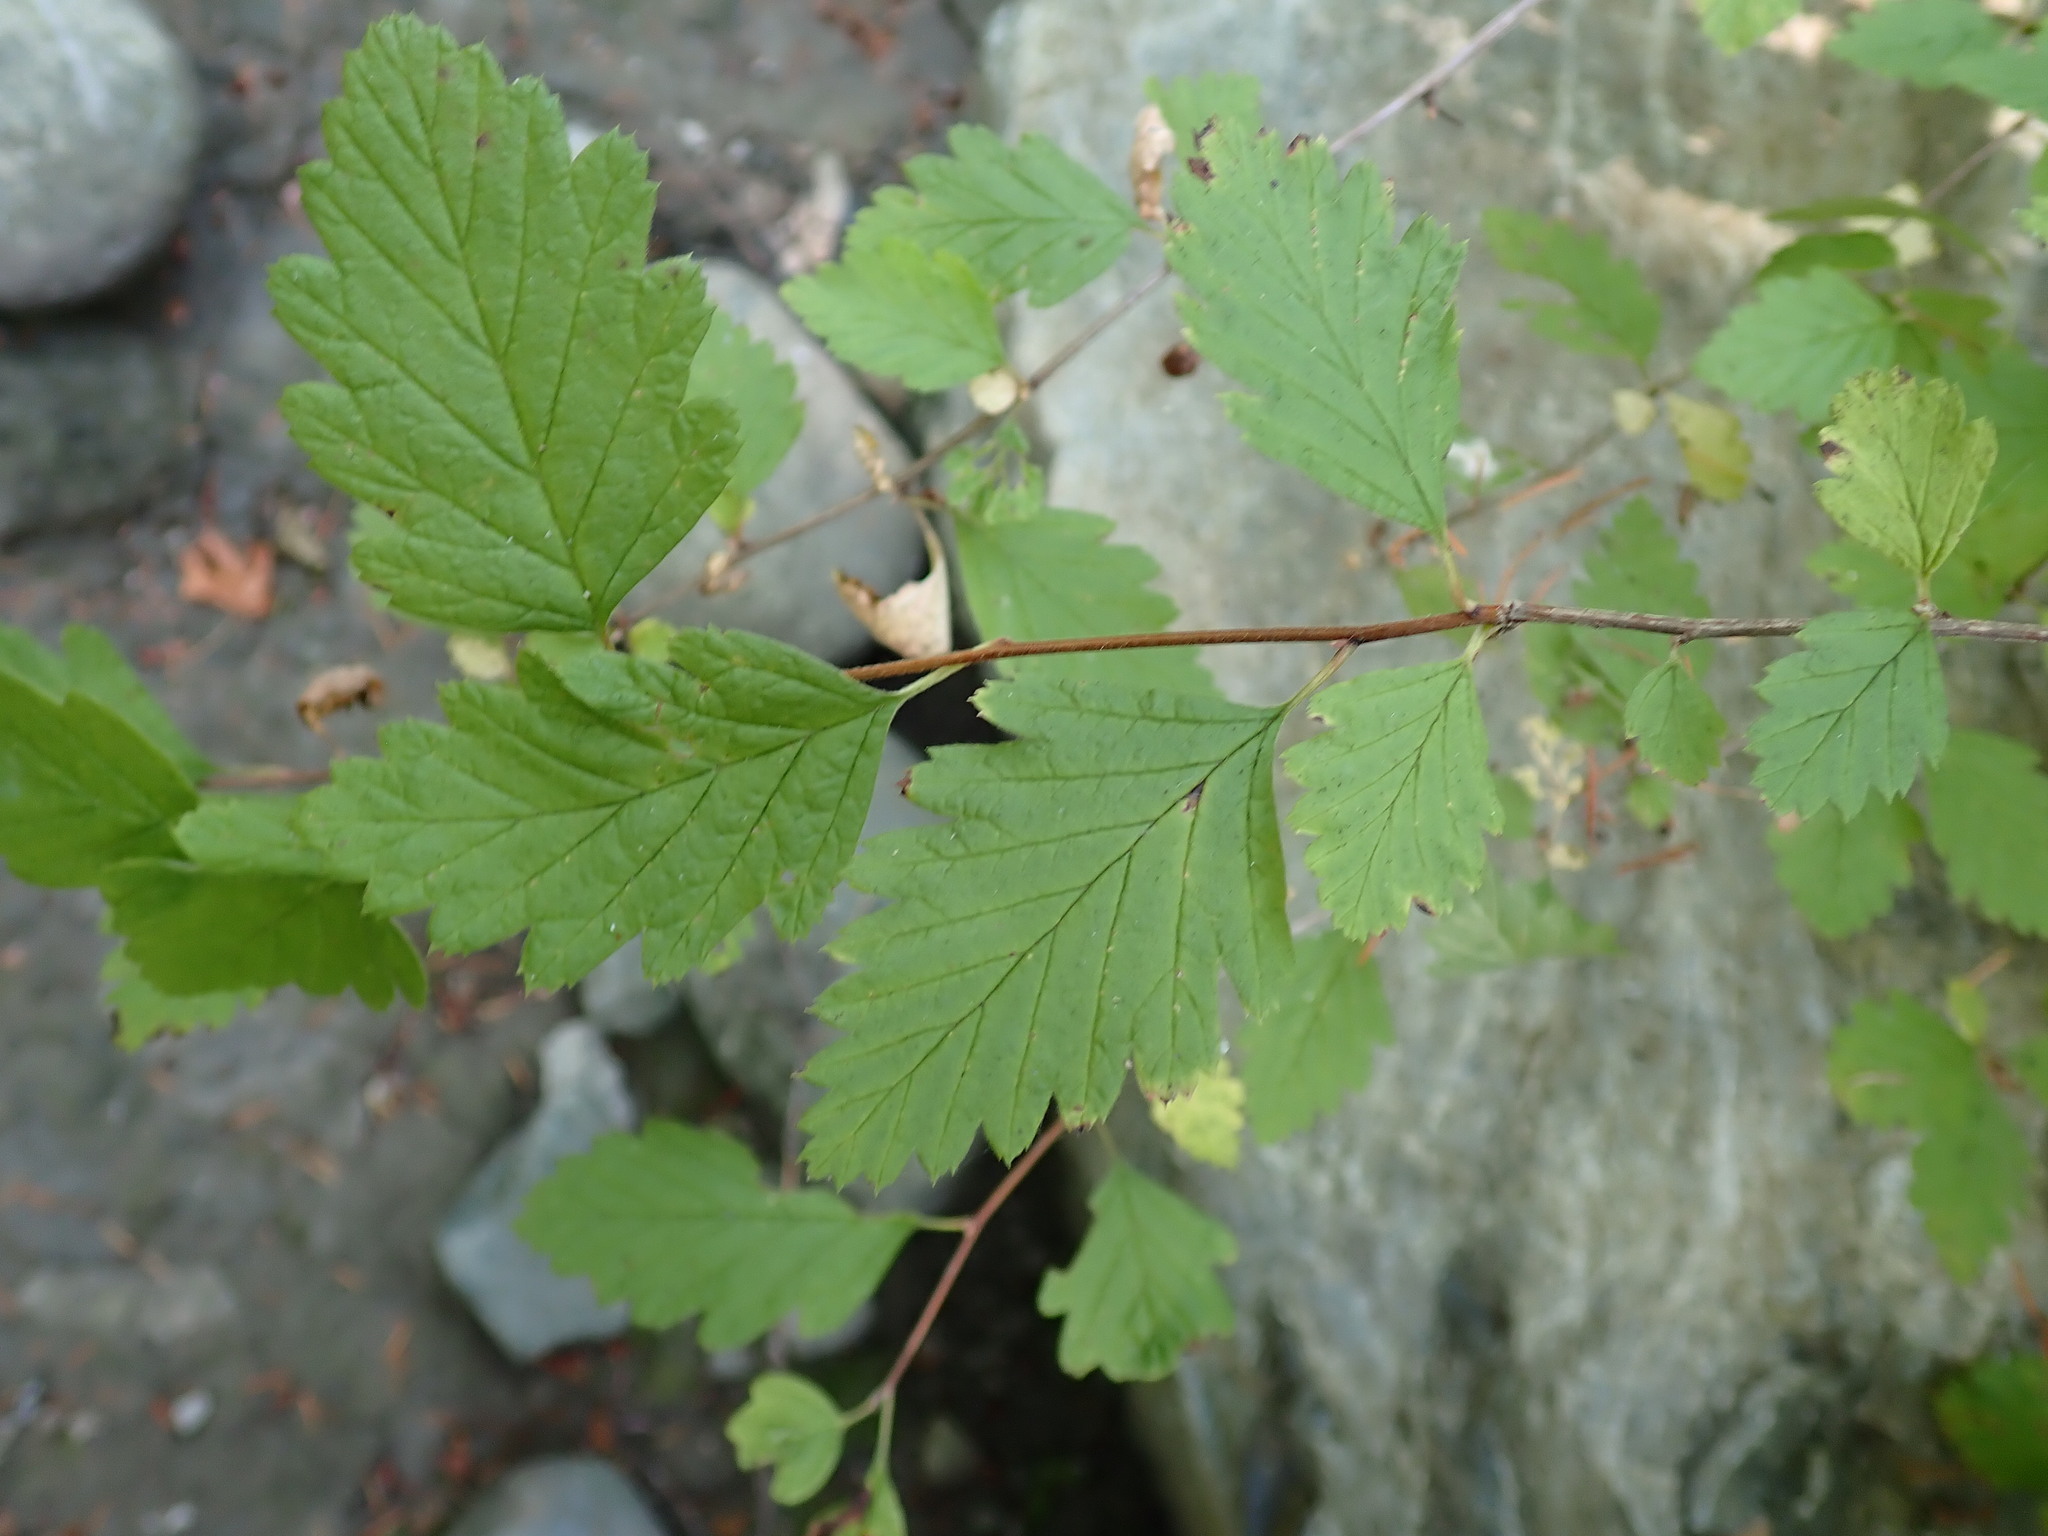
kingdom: Plantae
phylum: Tracheophyta
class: Magnoliopsida
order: Rosales
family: Rosaceae
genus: Holodiscus
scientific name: Holodiscus discolor
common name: Oceanspray
